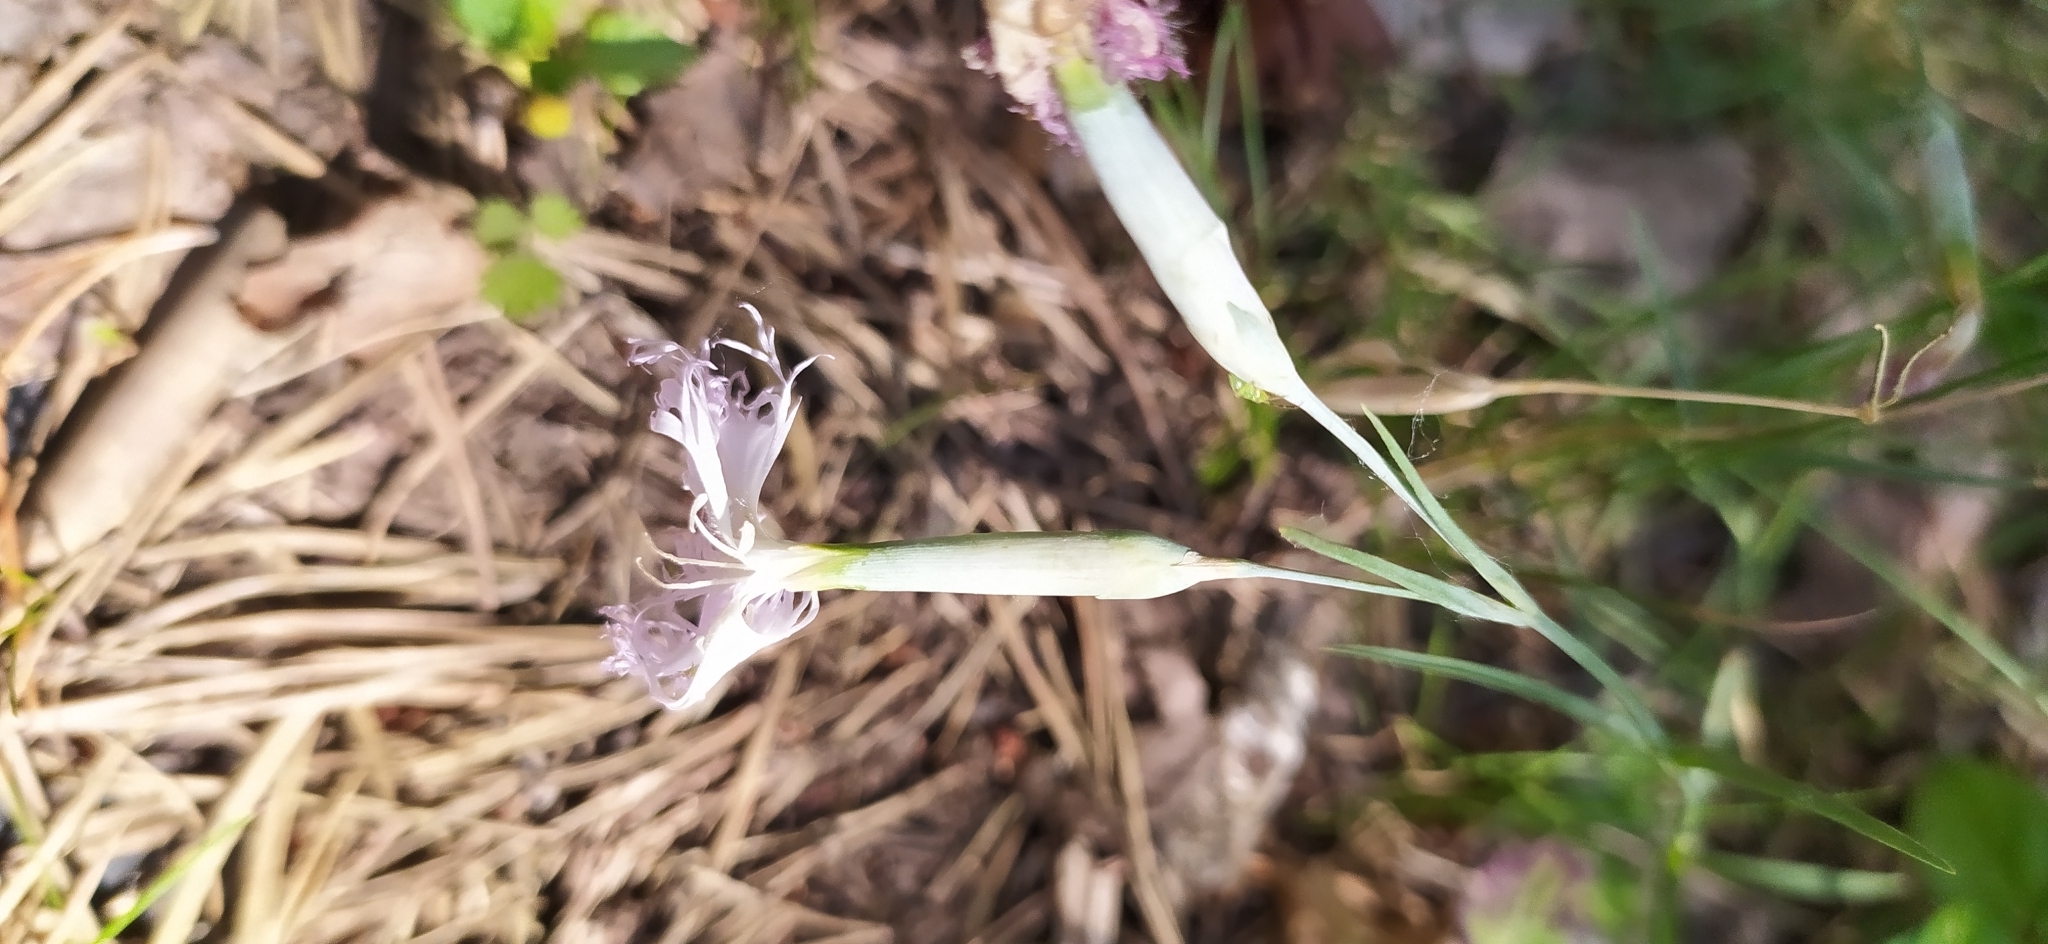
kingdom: Plantae
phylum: Tracheophyta
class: Magnoliopsida
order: Caryophyllales
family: Caryophyllaceae
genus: Dianthus
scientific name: Dianthus acicularis
